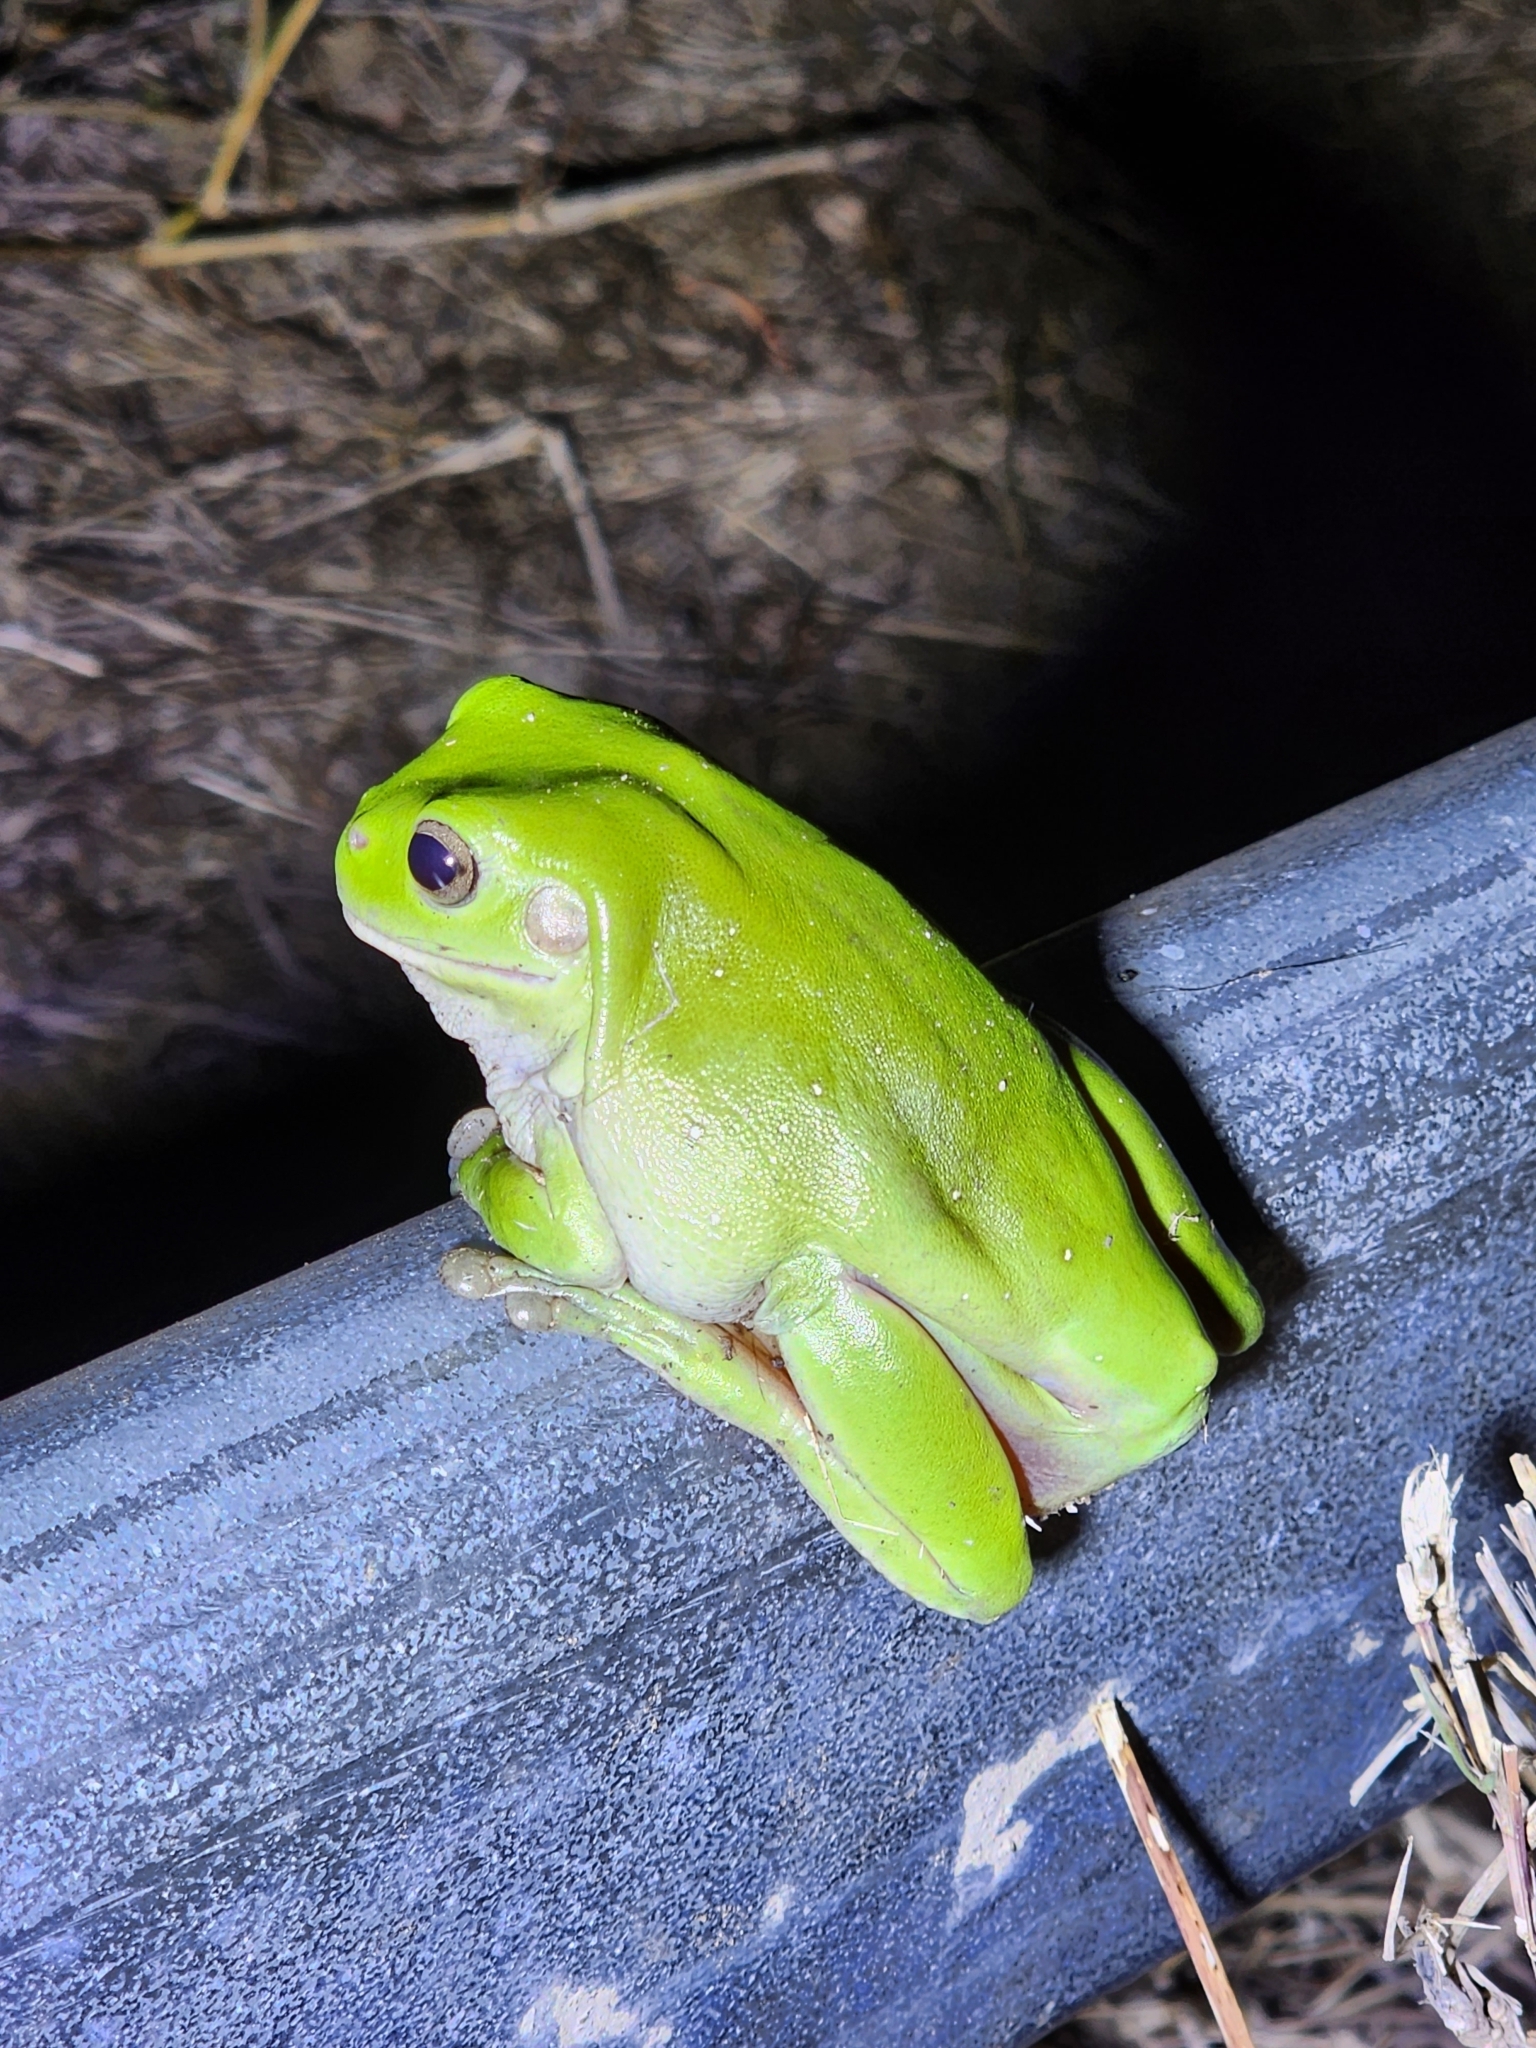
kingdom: Animalia
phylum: Chordata
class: Amphibia
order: Anura
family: Pelodryadidae
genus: Ranoidea
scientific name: Ranoidea caerulea
